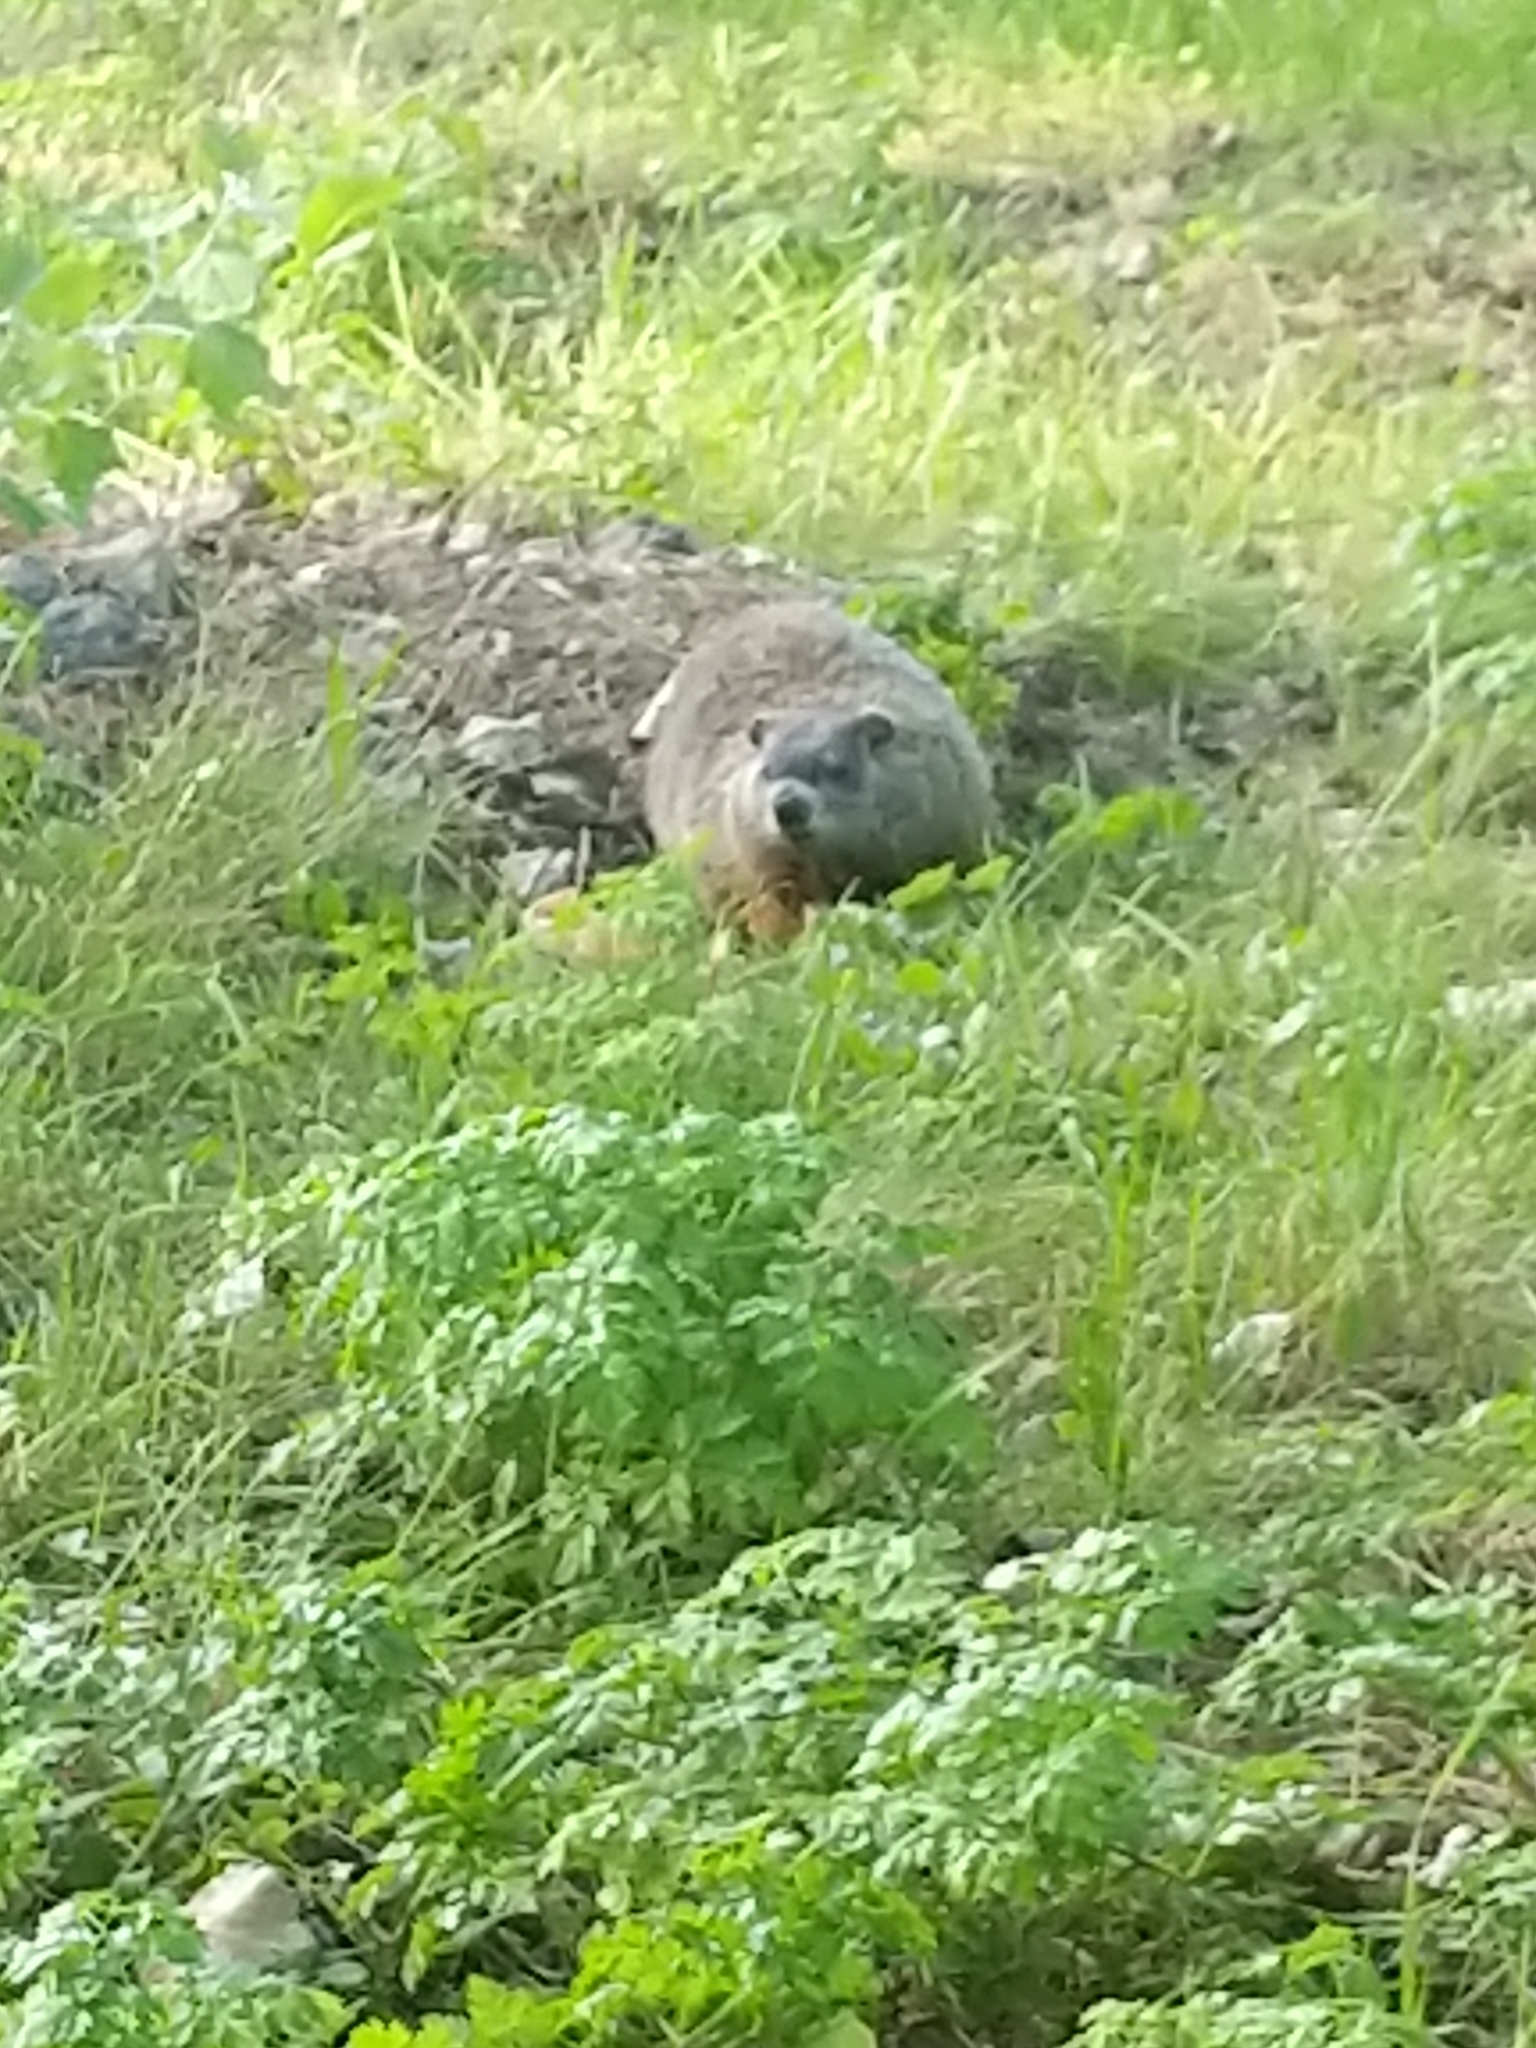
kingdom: Animalia
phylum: Chordata
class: Mammalia
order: Rodentia
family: Sciuridae
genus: Marmota
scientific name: Marmota monax
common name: Groundhog
